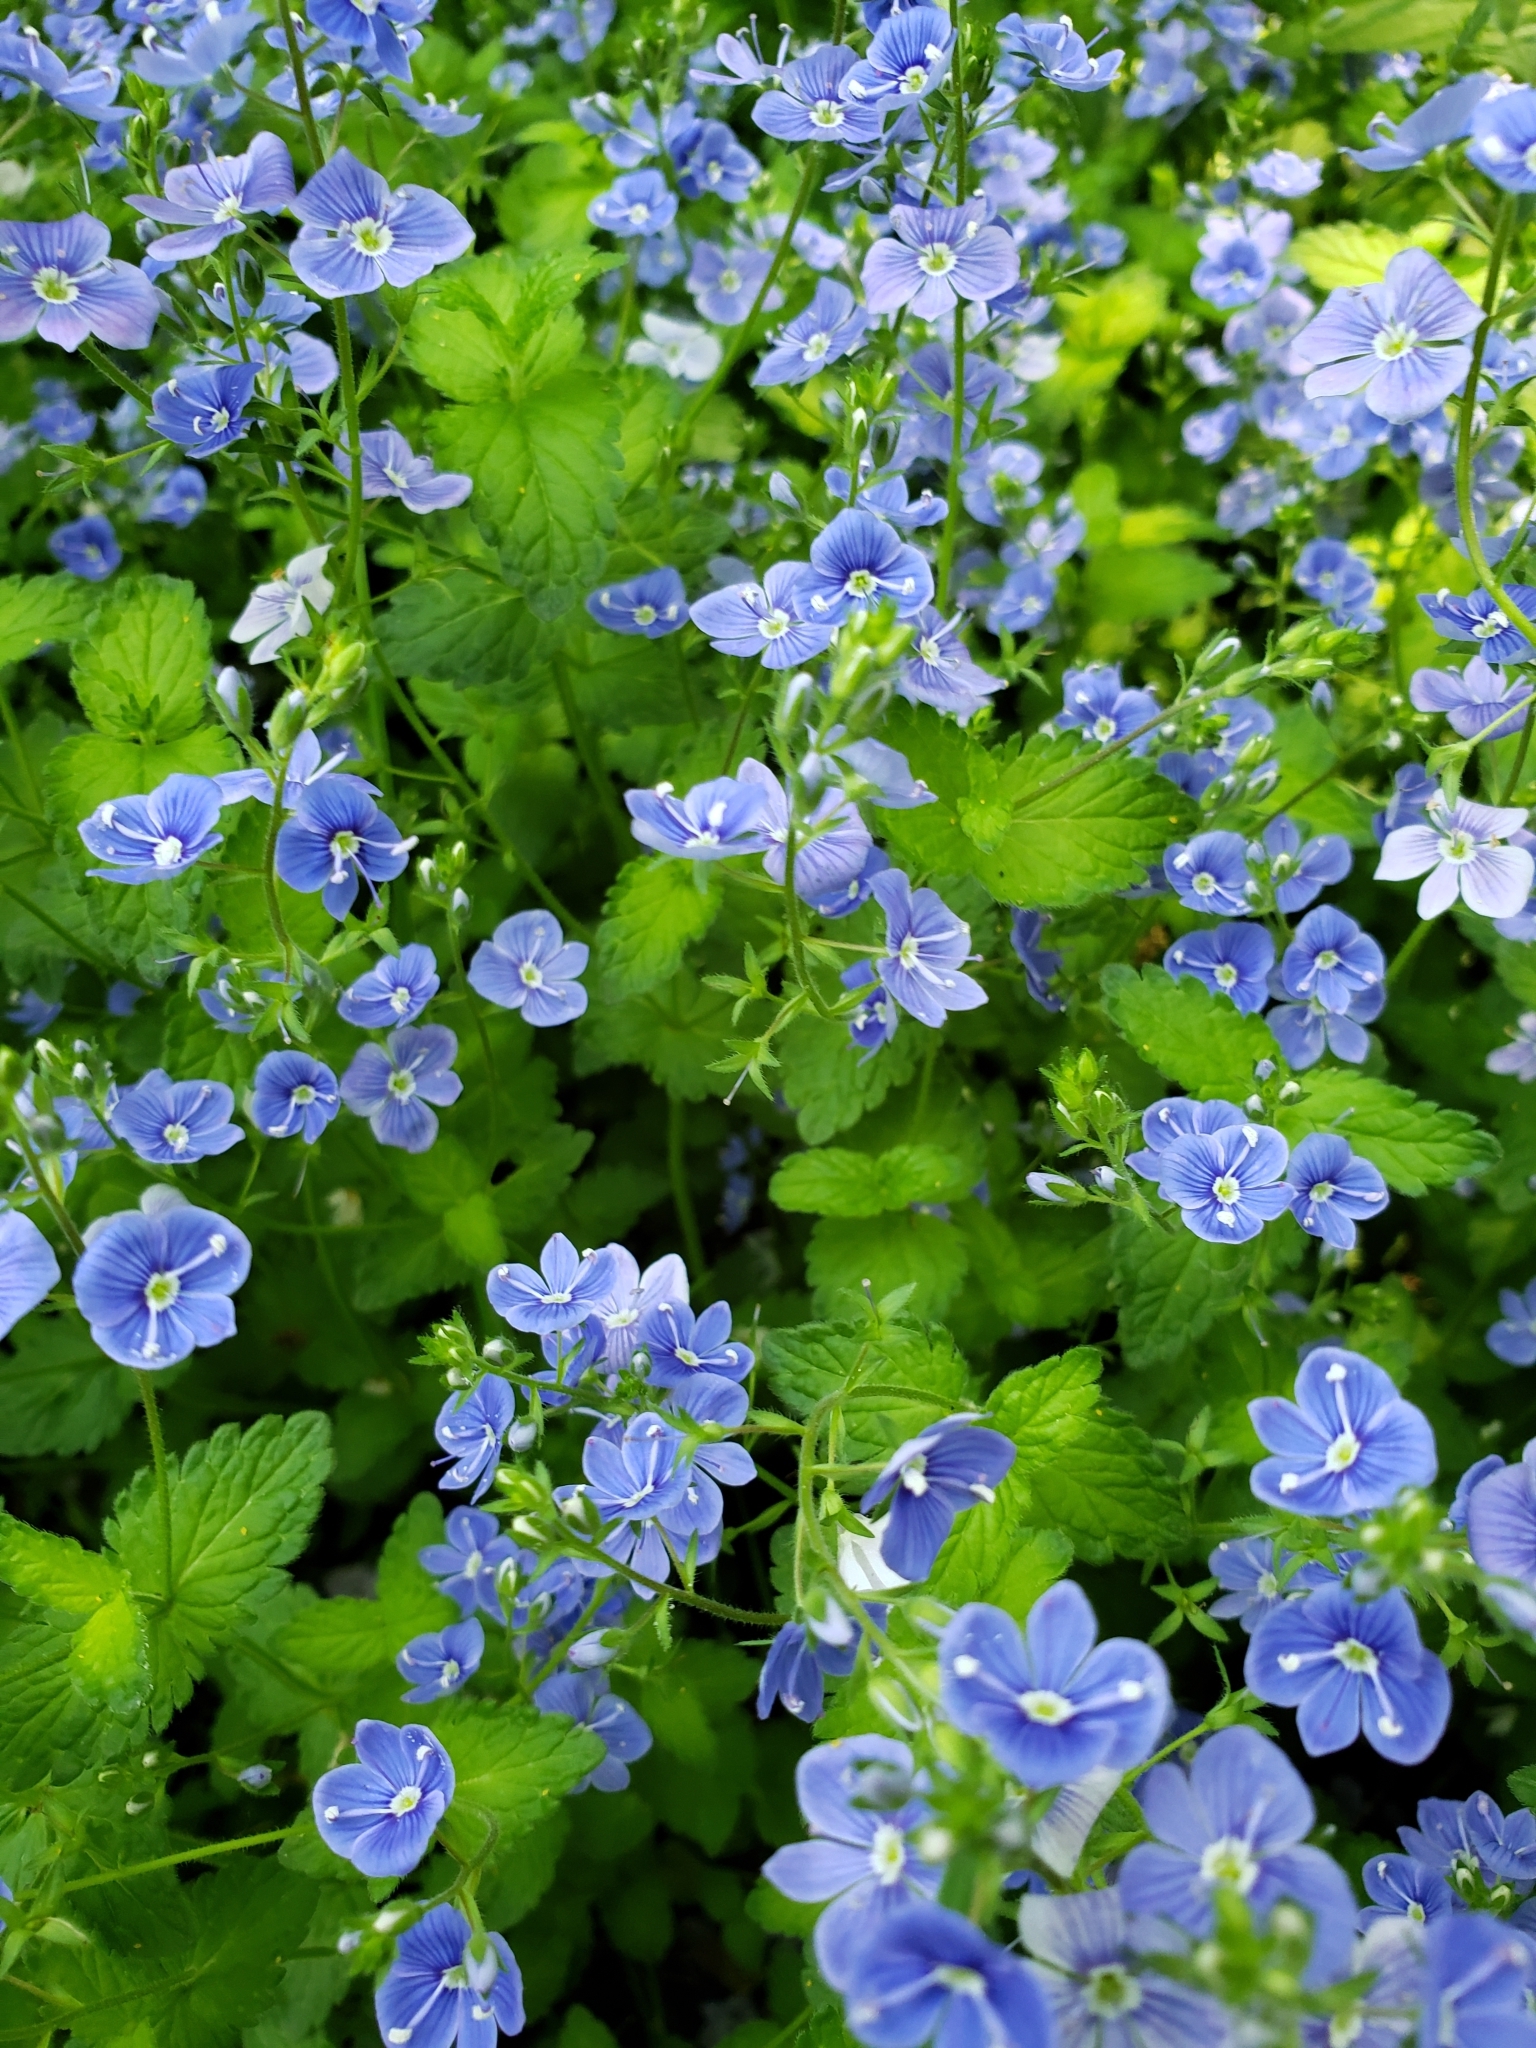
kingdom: Plantae
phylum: Tracheophyta
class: Magnoliopsida
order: Lamiales
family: Plantaginaceae
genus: Veronica
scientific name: Veronica chamaedrys
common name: Germander speedwell
